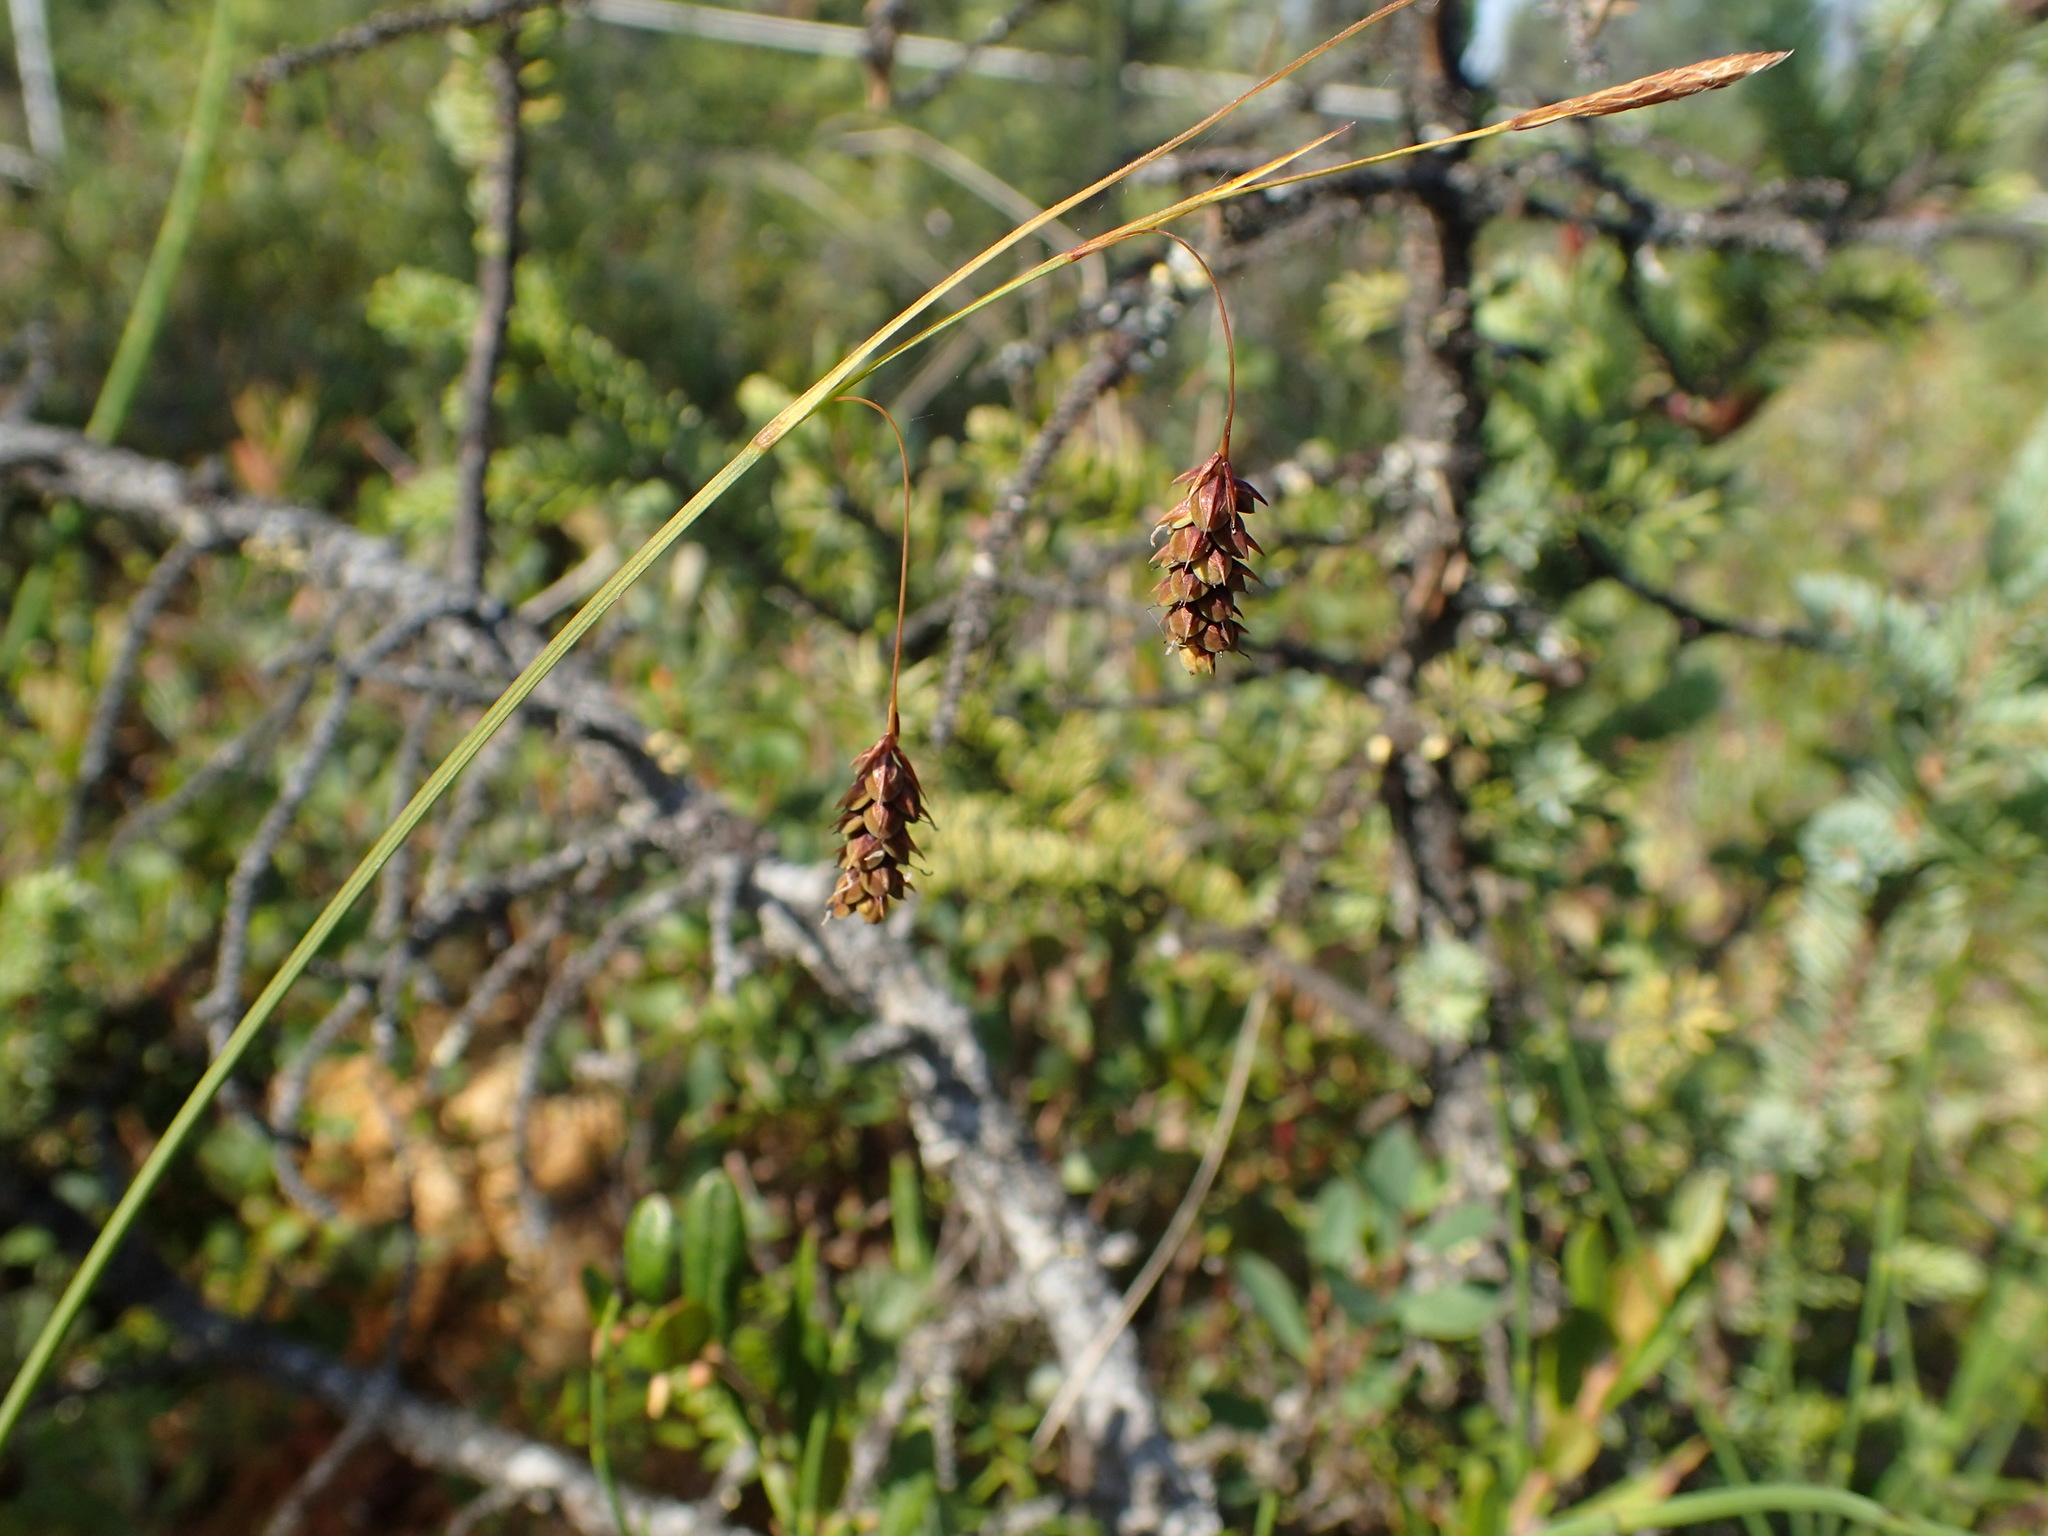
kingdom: Plantae
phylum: Tracheophyta
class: Liliopsida
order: Poales
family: Cyperaceae
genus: Carex
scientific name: Carex magellanica
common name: Bog sedge
